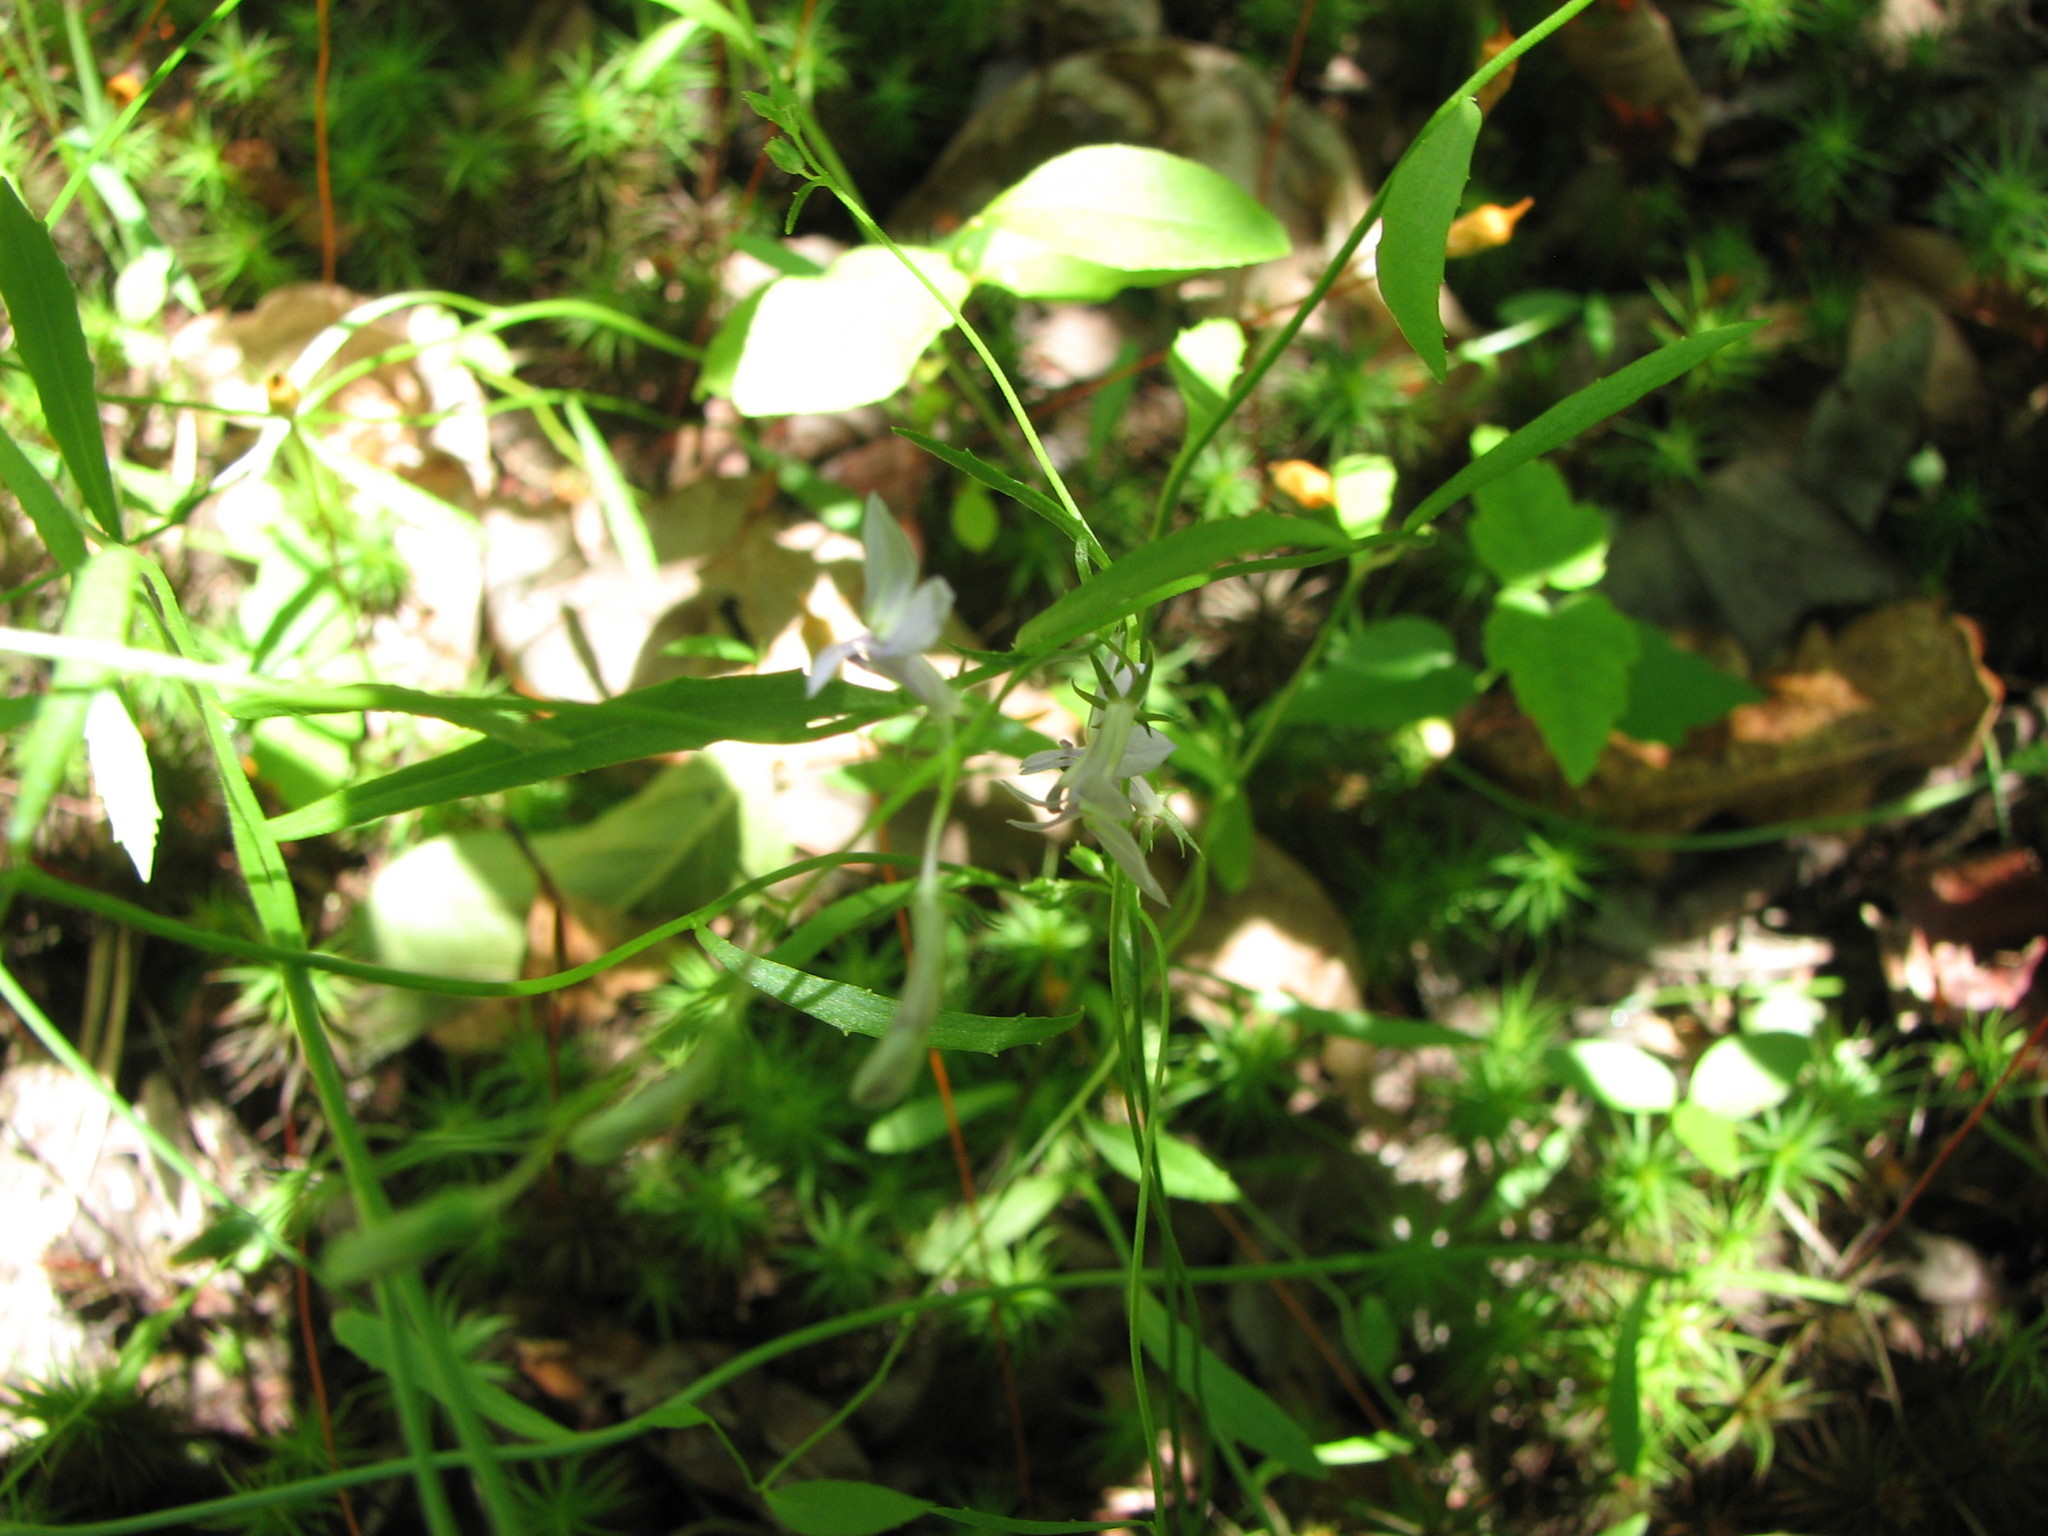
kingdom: Plantae
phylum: Tracheophyta
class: Magnoliopsida
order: Asterales
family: Campanulaceae
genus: Lobelia
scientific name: Lobelia nuttallii
